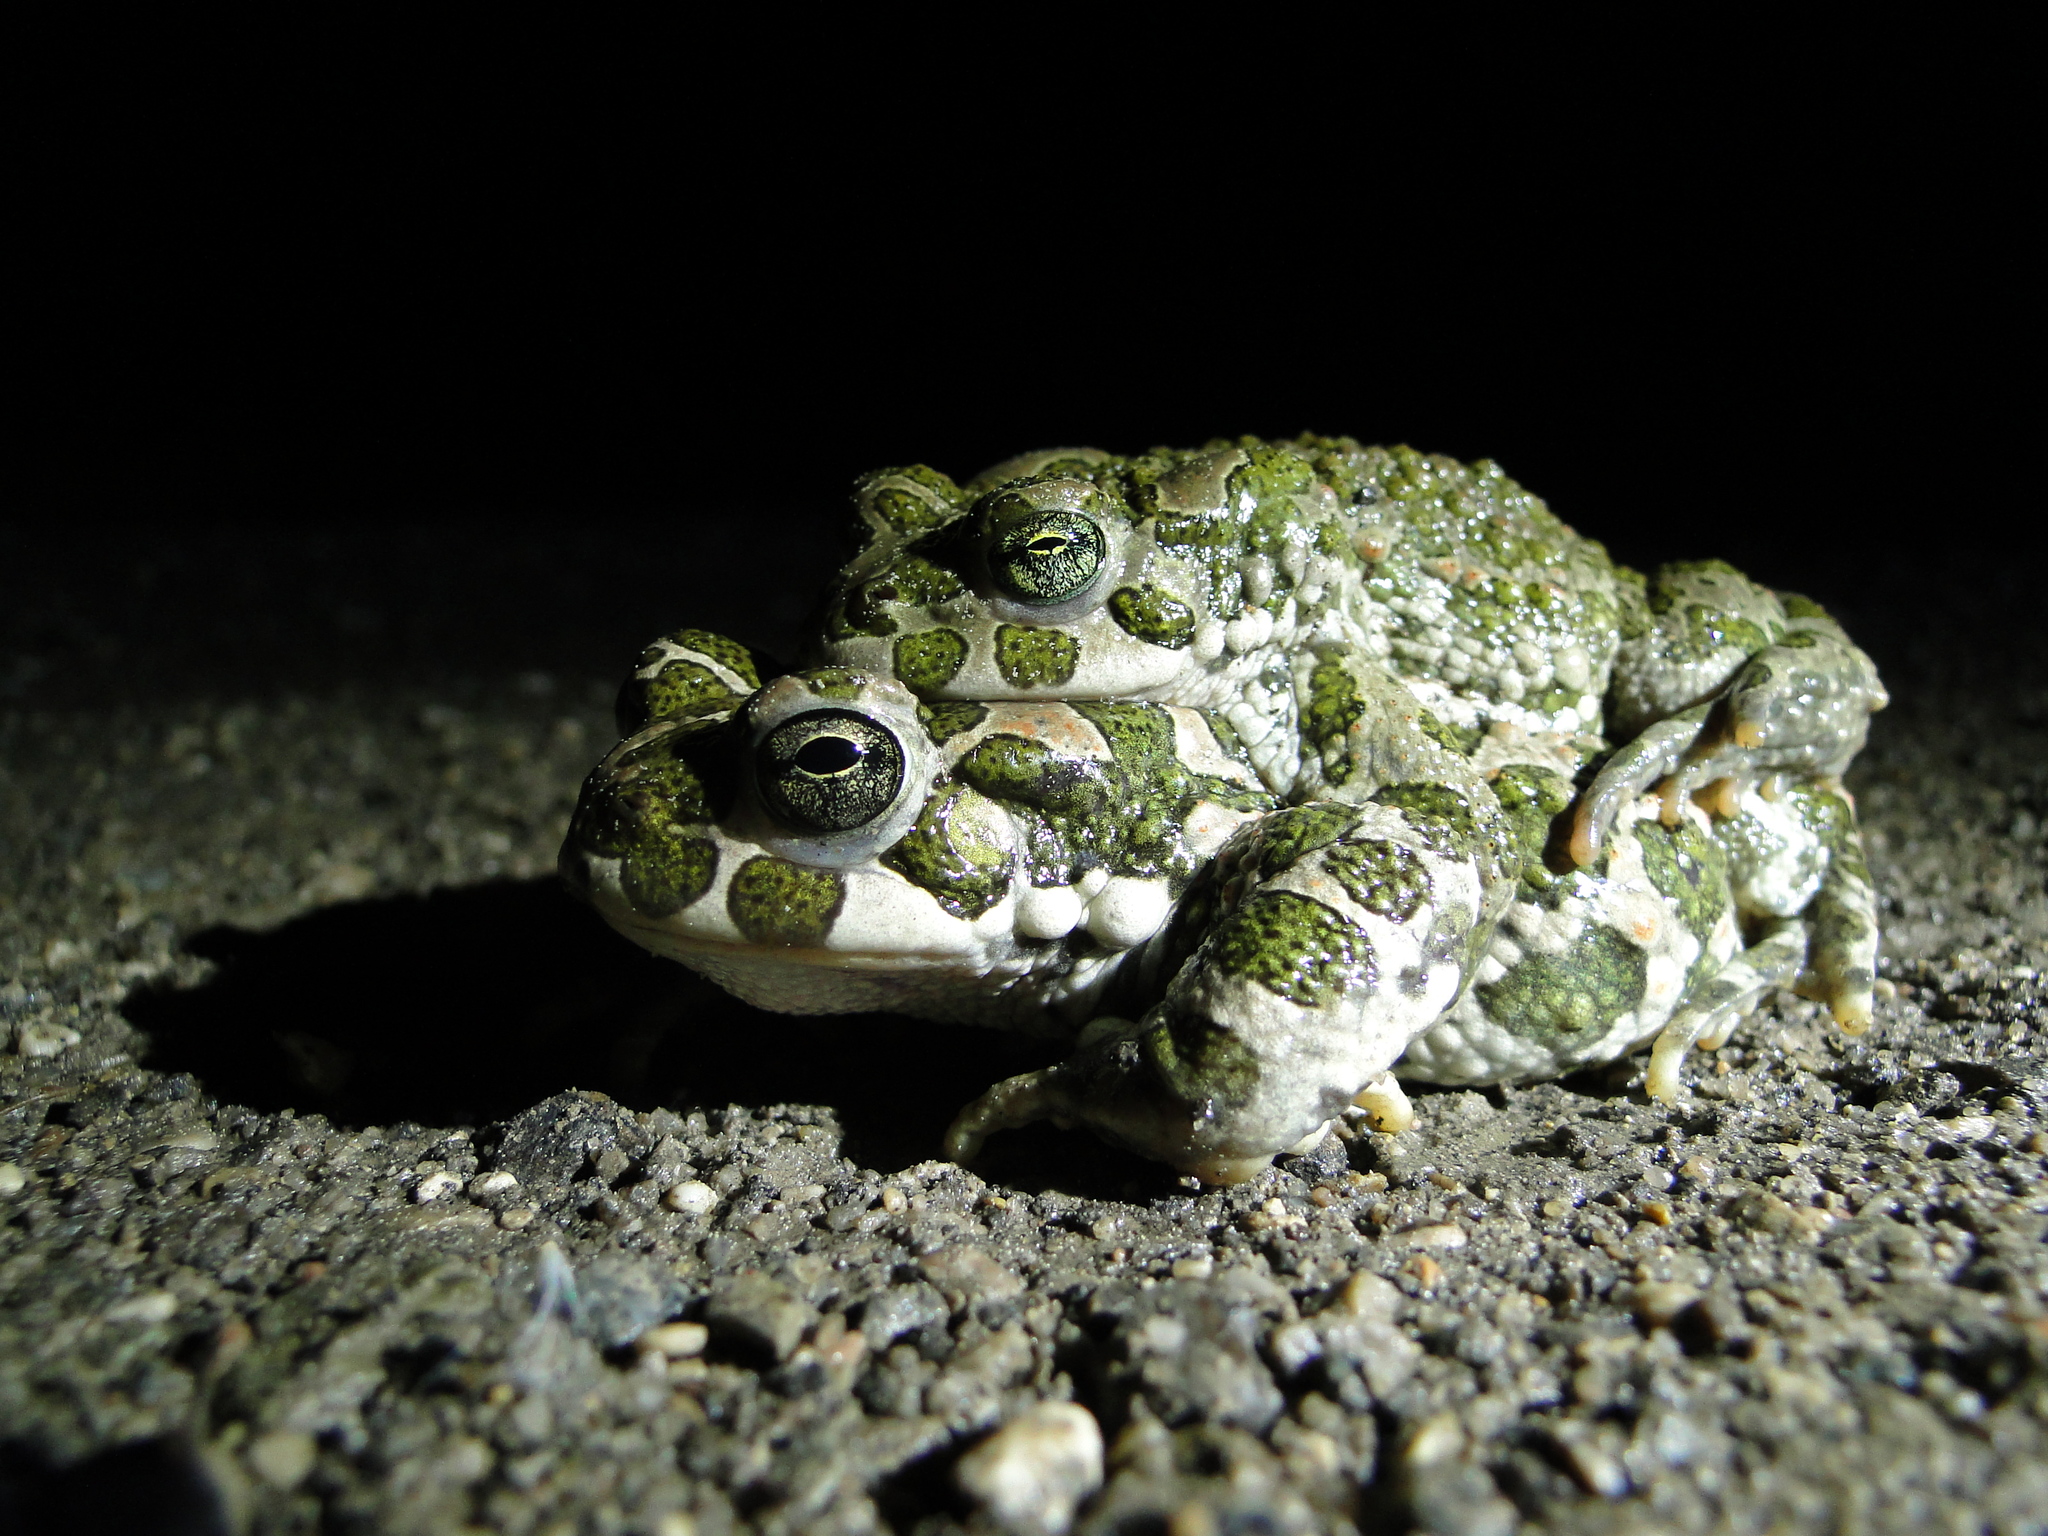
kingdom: Animalia
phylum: Chordata
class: Amphibia
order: Anura
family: Bufonidae
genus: Bufotes
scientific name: Bufotes viridis
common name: European green toad
